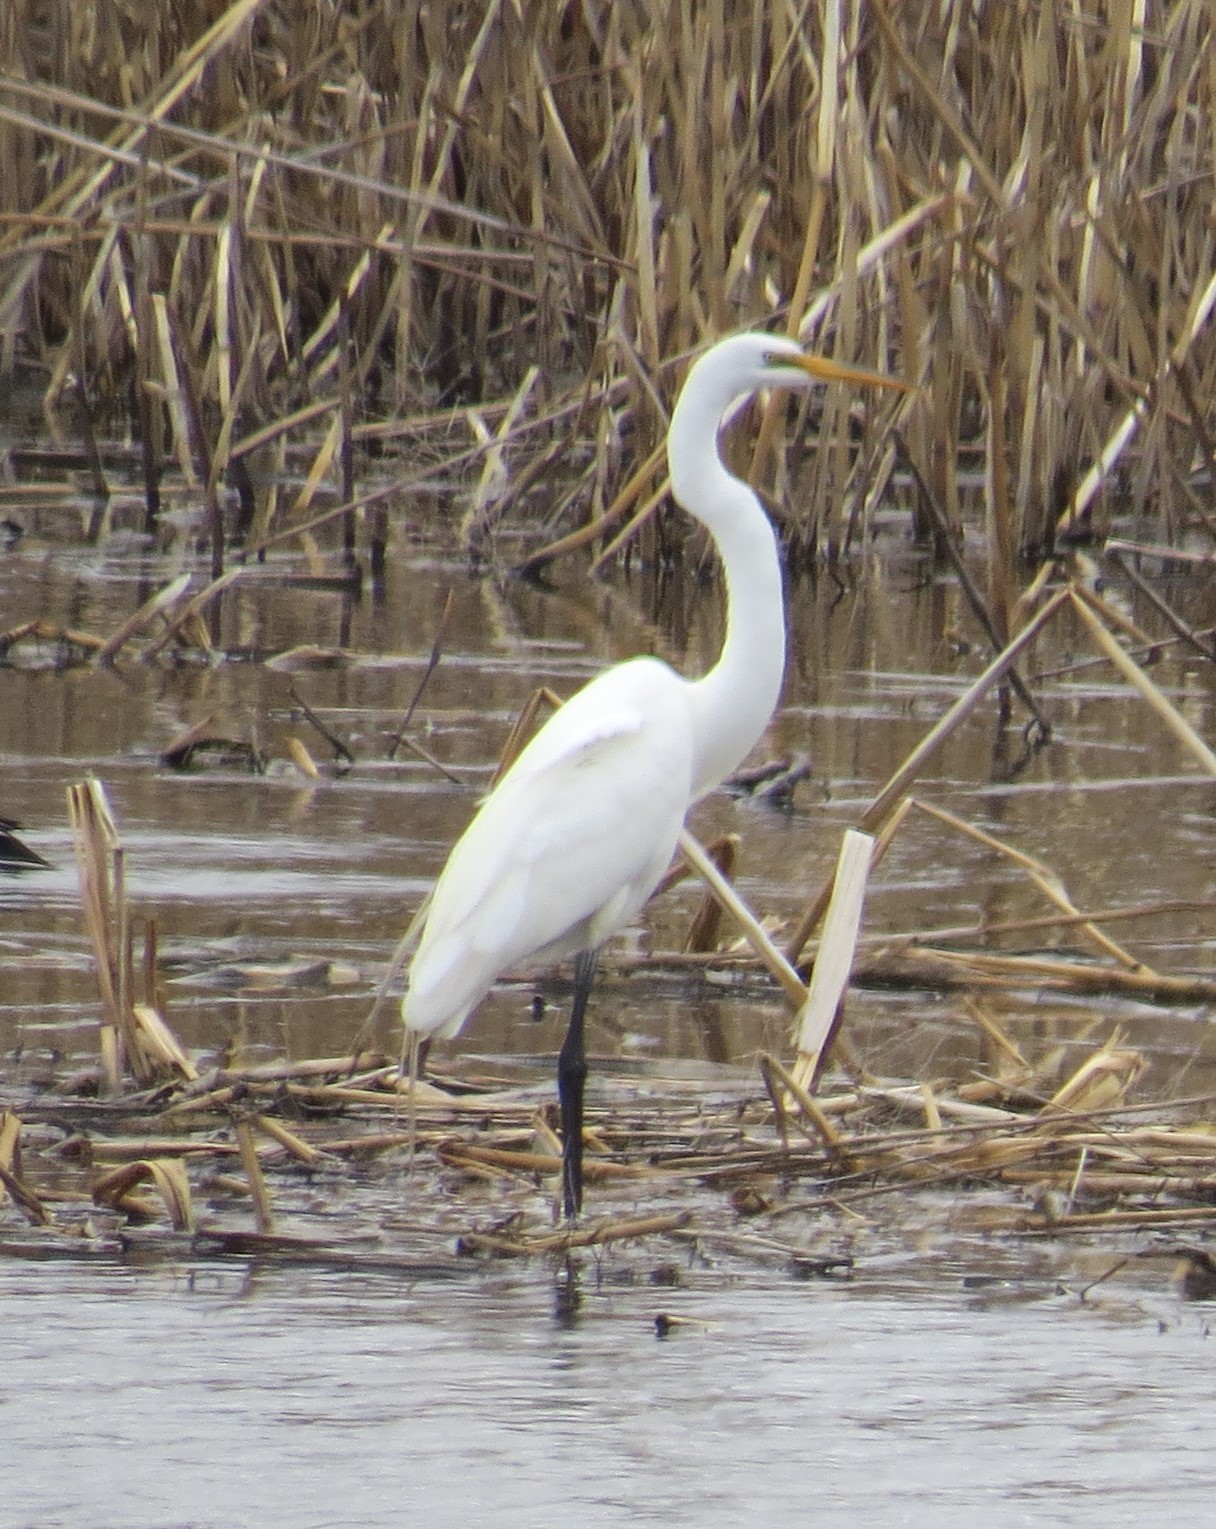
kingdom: Animalia
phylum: Chordata
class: Aves
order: Pelecaniformes
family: Ardeidae
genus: Ardea
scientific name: Ardea alba
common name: Great egret
